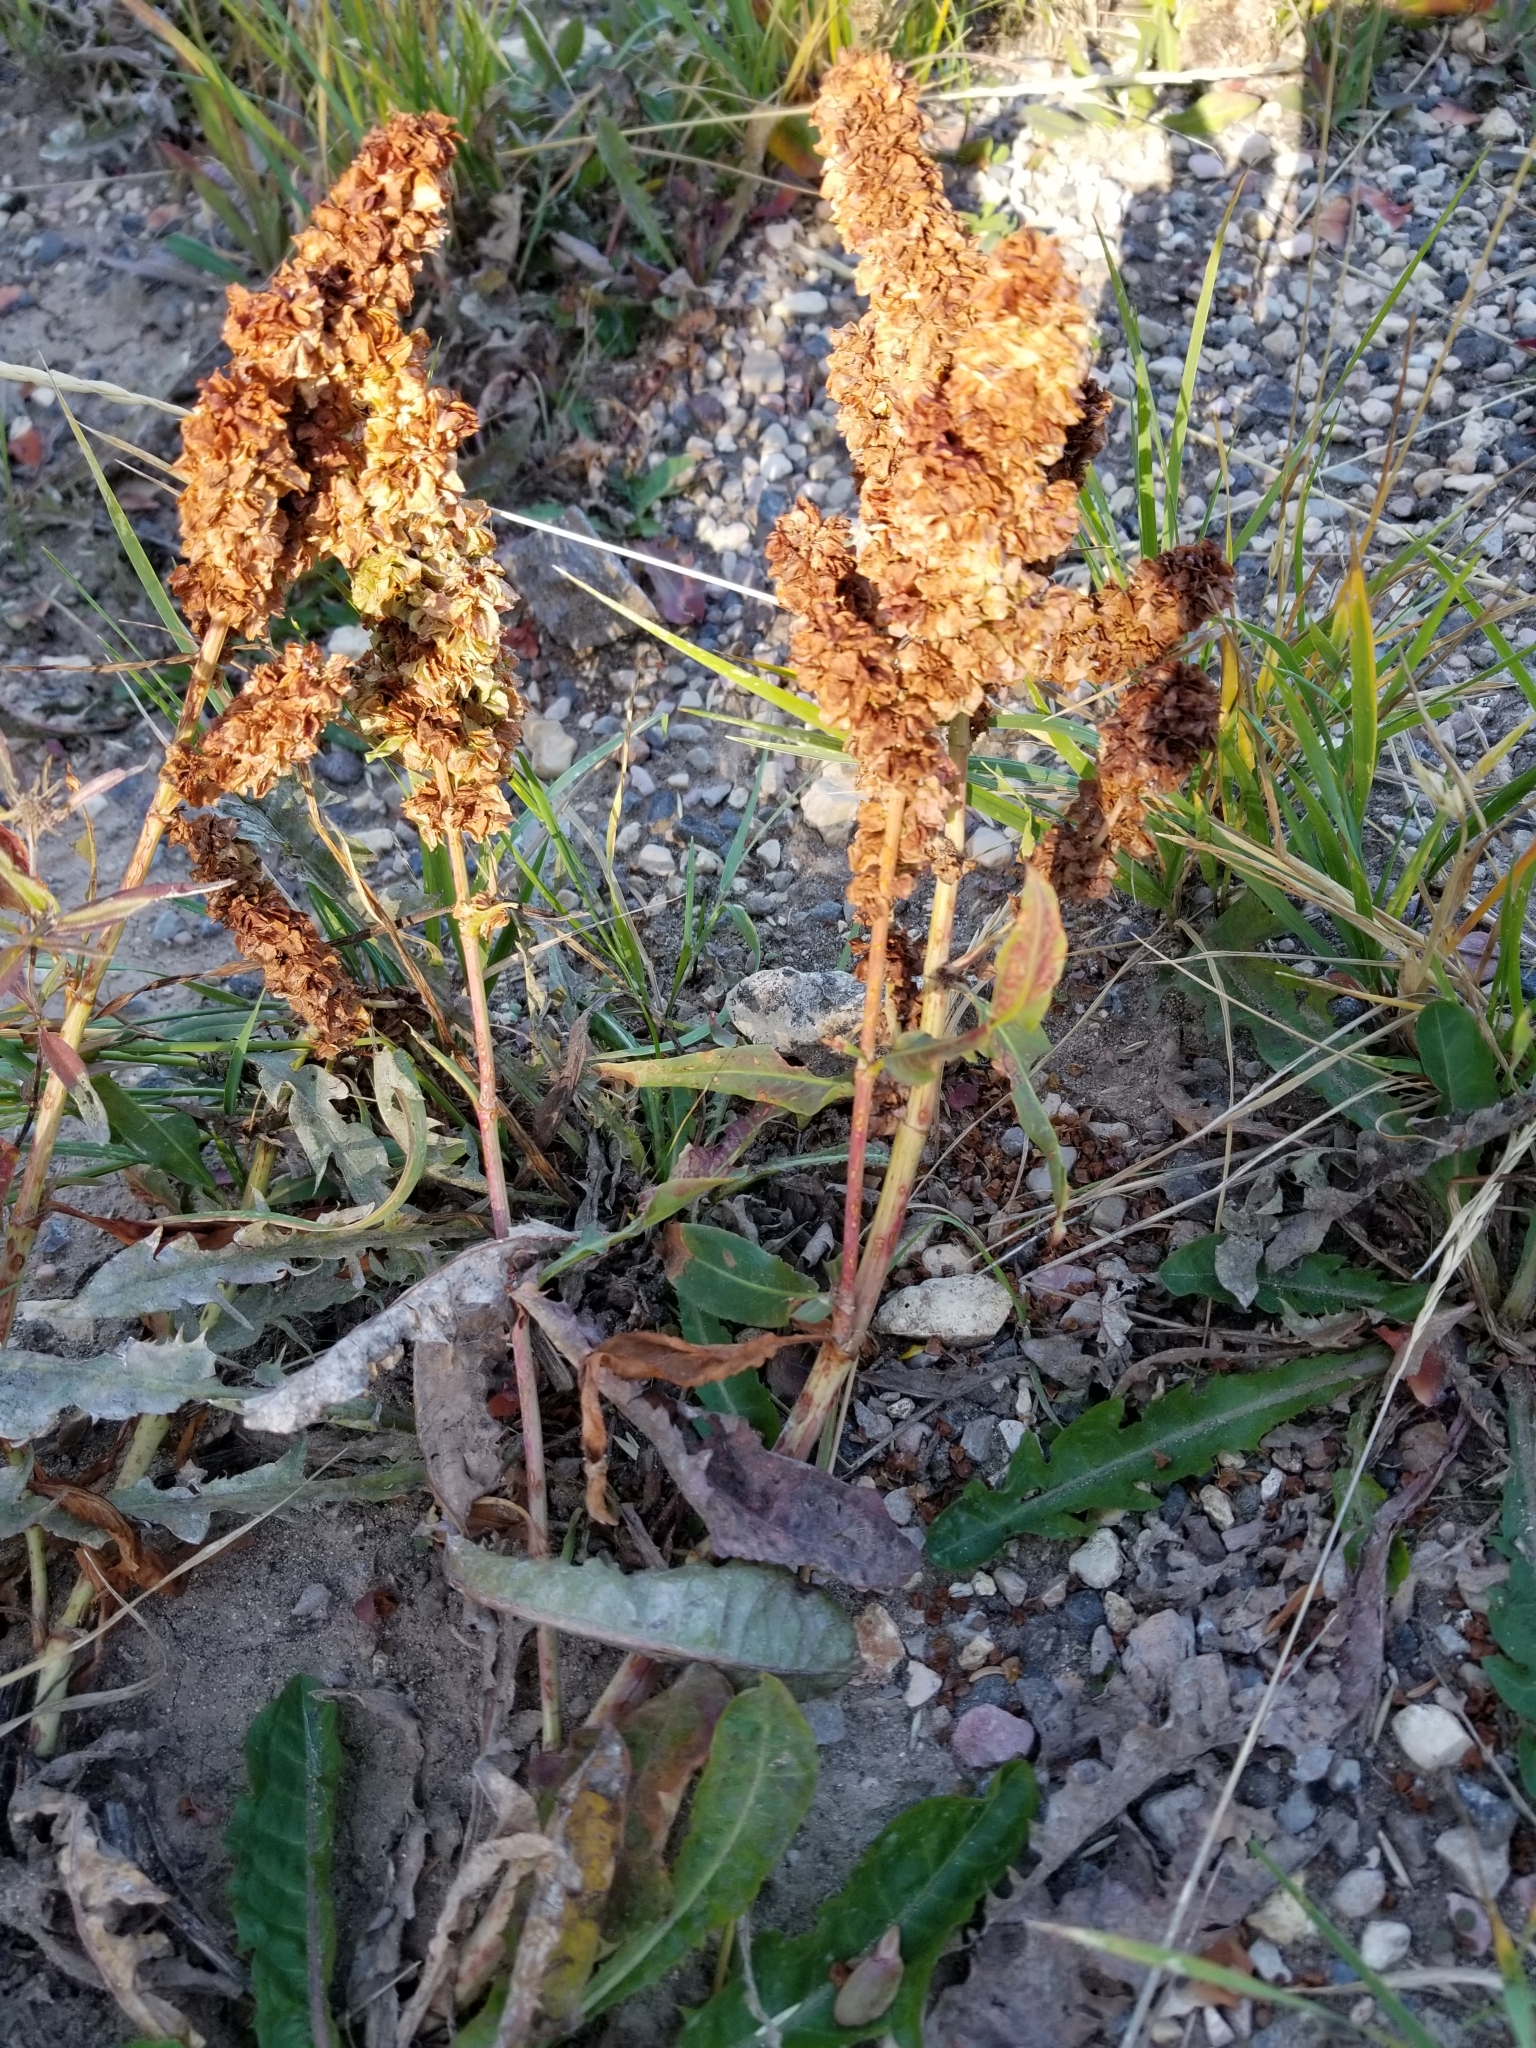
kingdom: Plantae
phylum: Tracheophyta
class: Magnoliopsida
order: Caryophyllales
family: Polygonaceae
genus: Rumex
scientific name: Rumex salicifolius
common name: Willow-leaved dock
